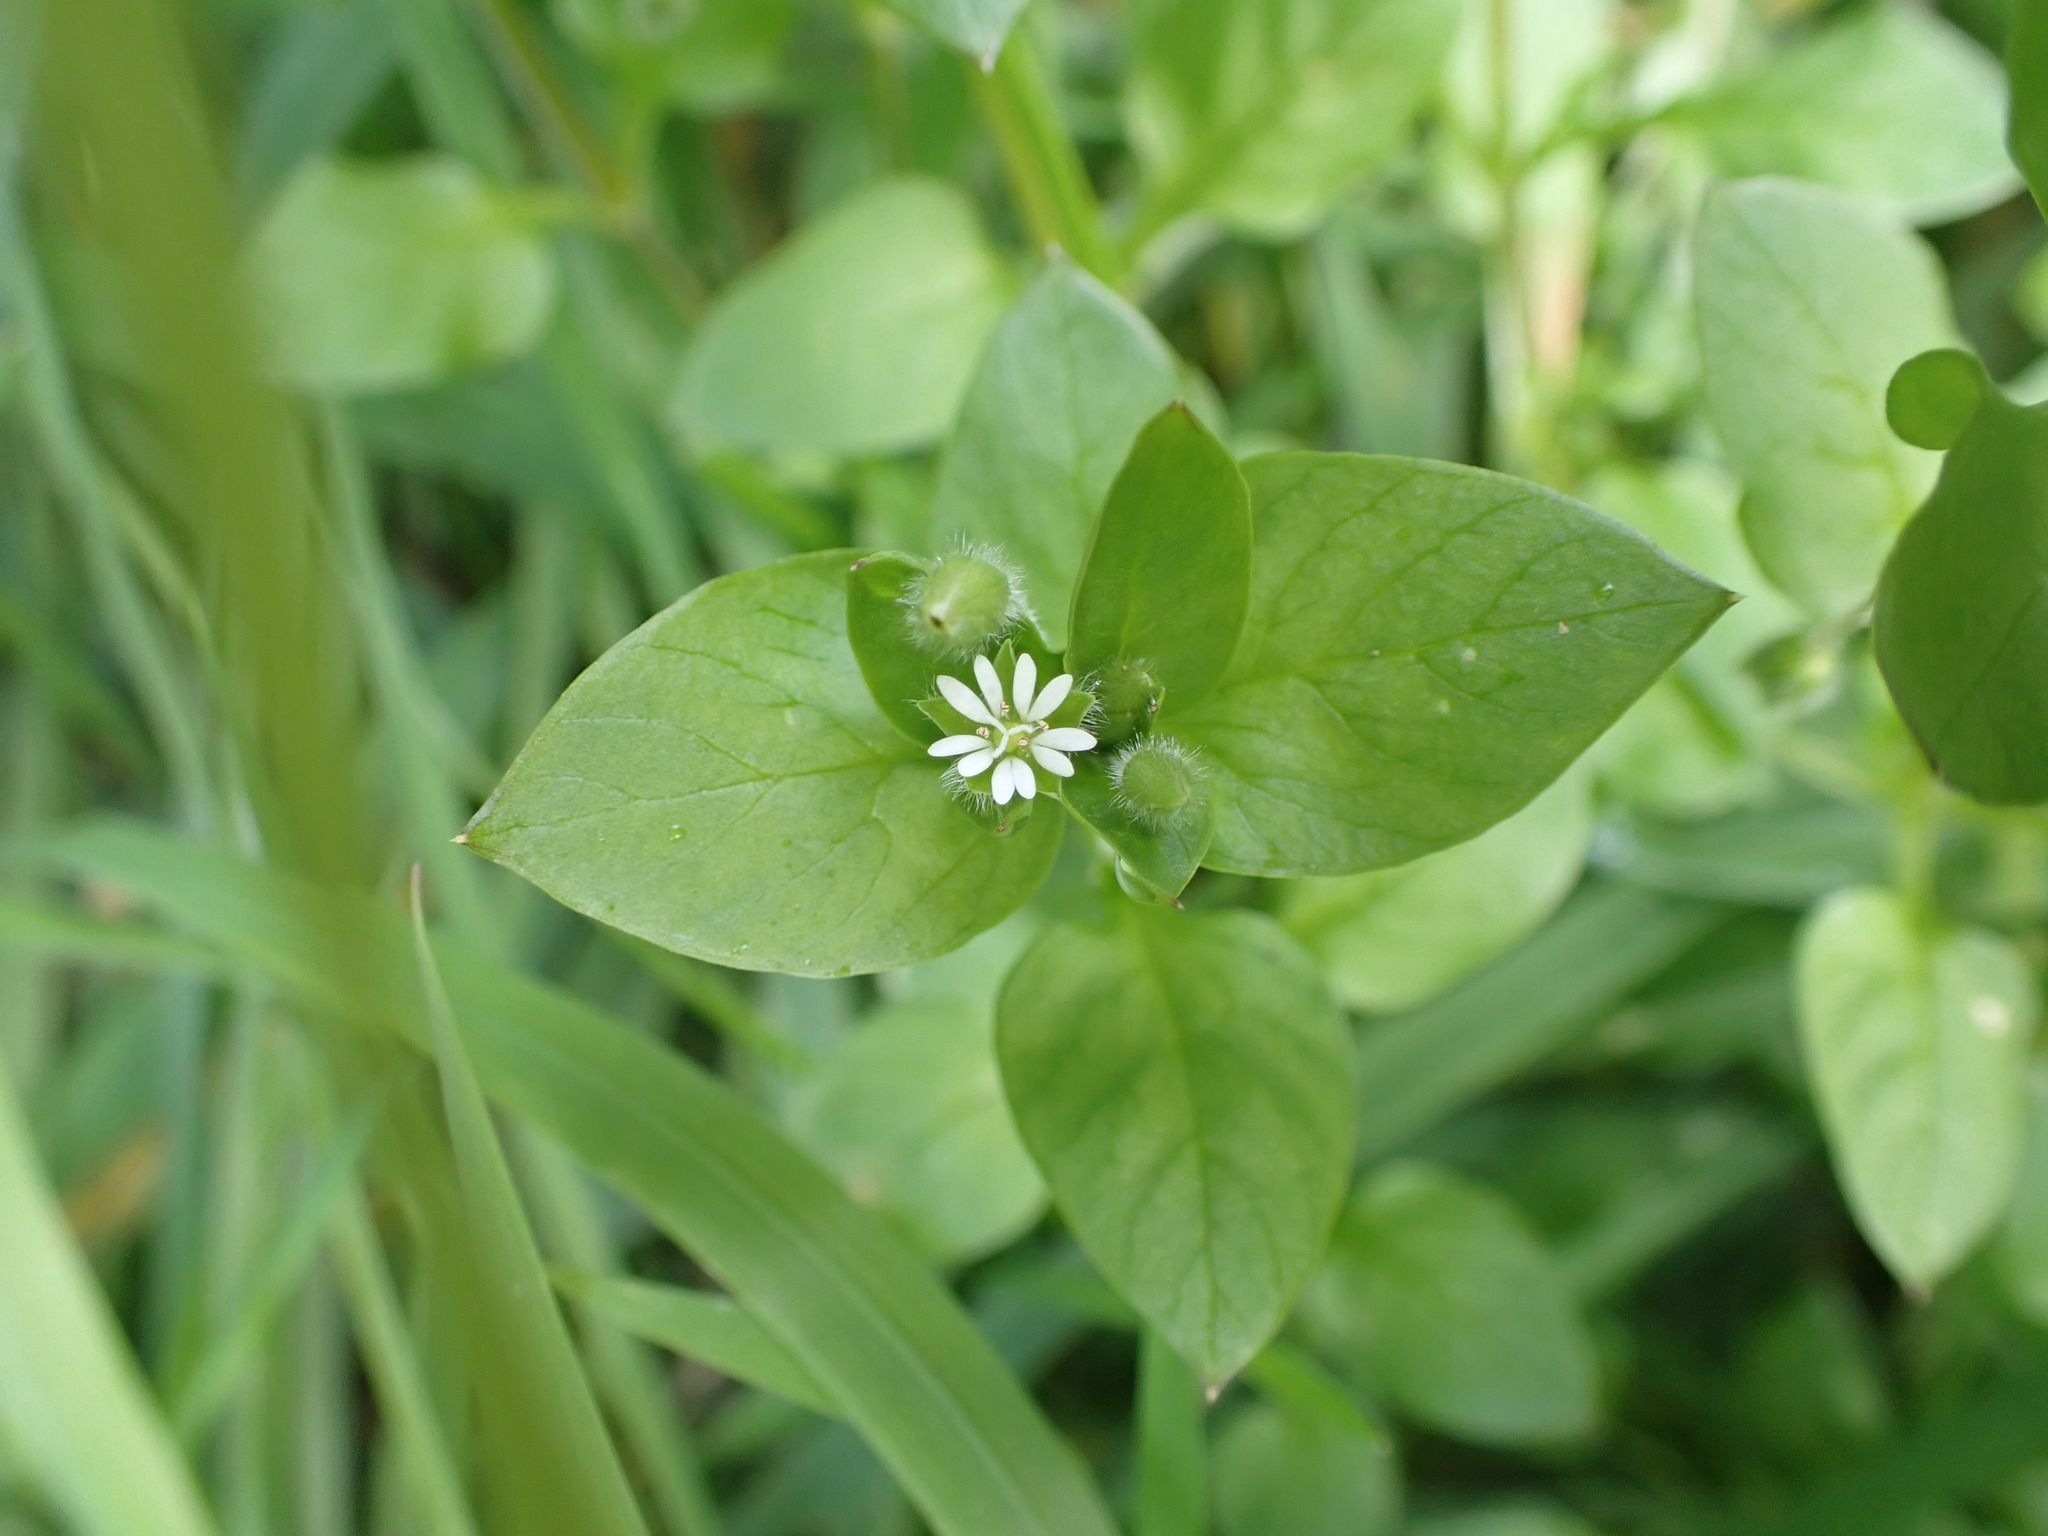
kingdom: Plantae
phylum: Tracheophyta
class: Magnoliopsida
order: Caryophyllales
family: Caryophyllaceae
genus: Stellaria
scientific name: Stellaria media
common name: Common chickweed
